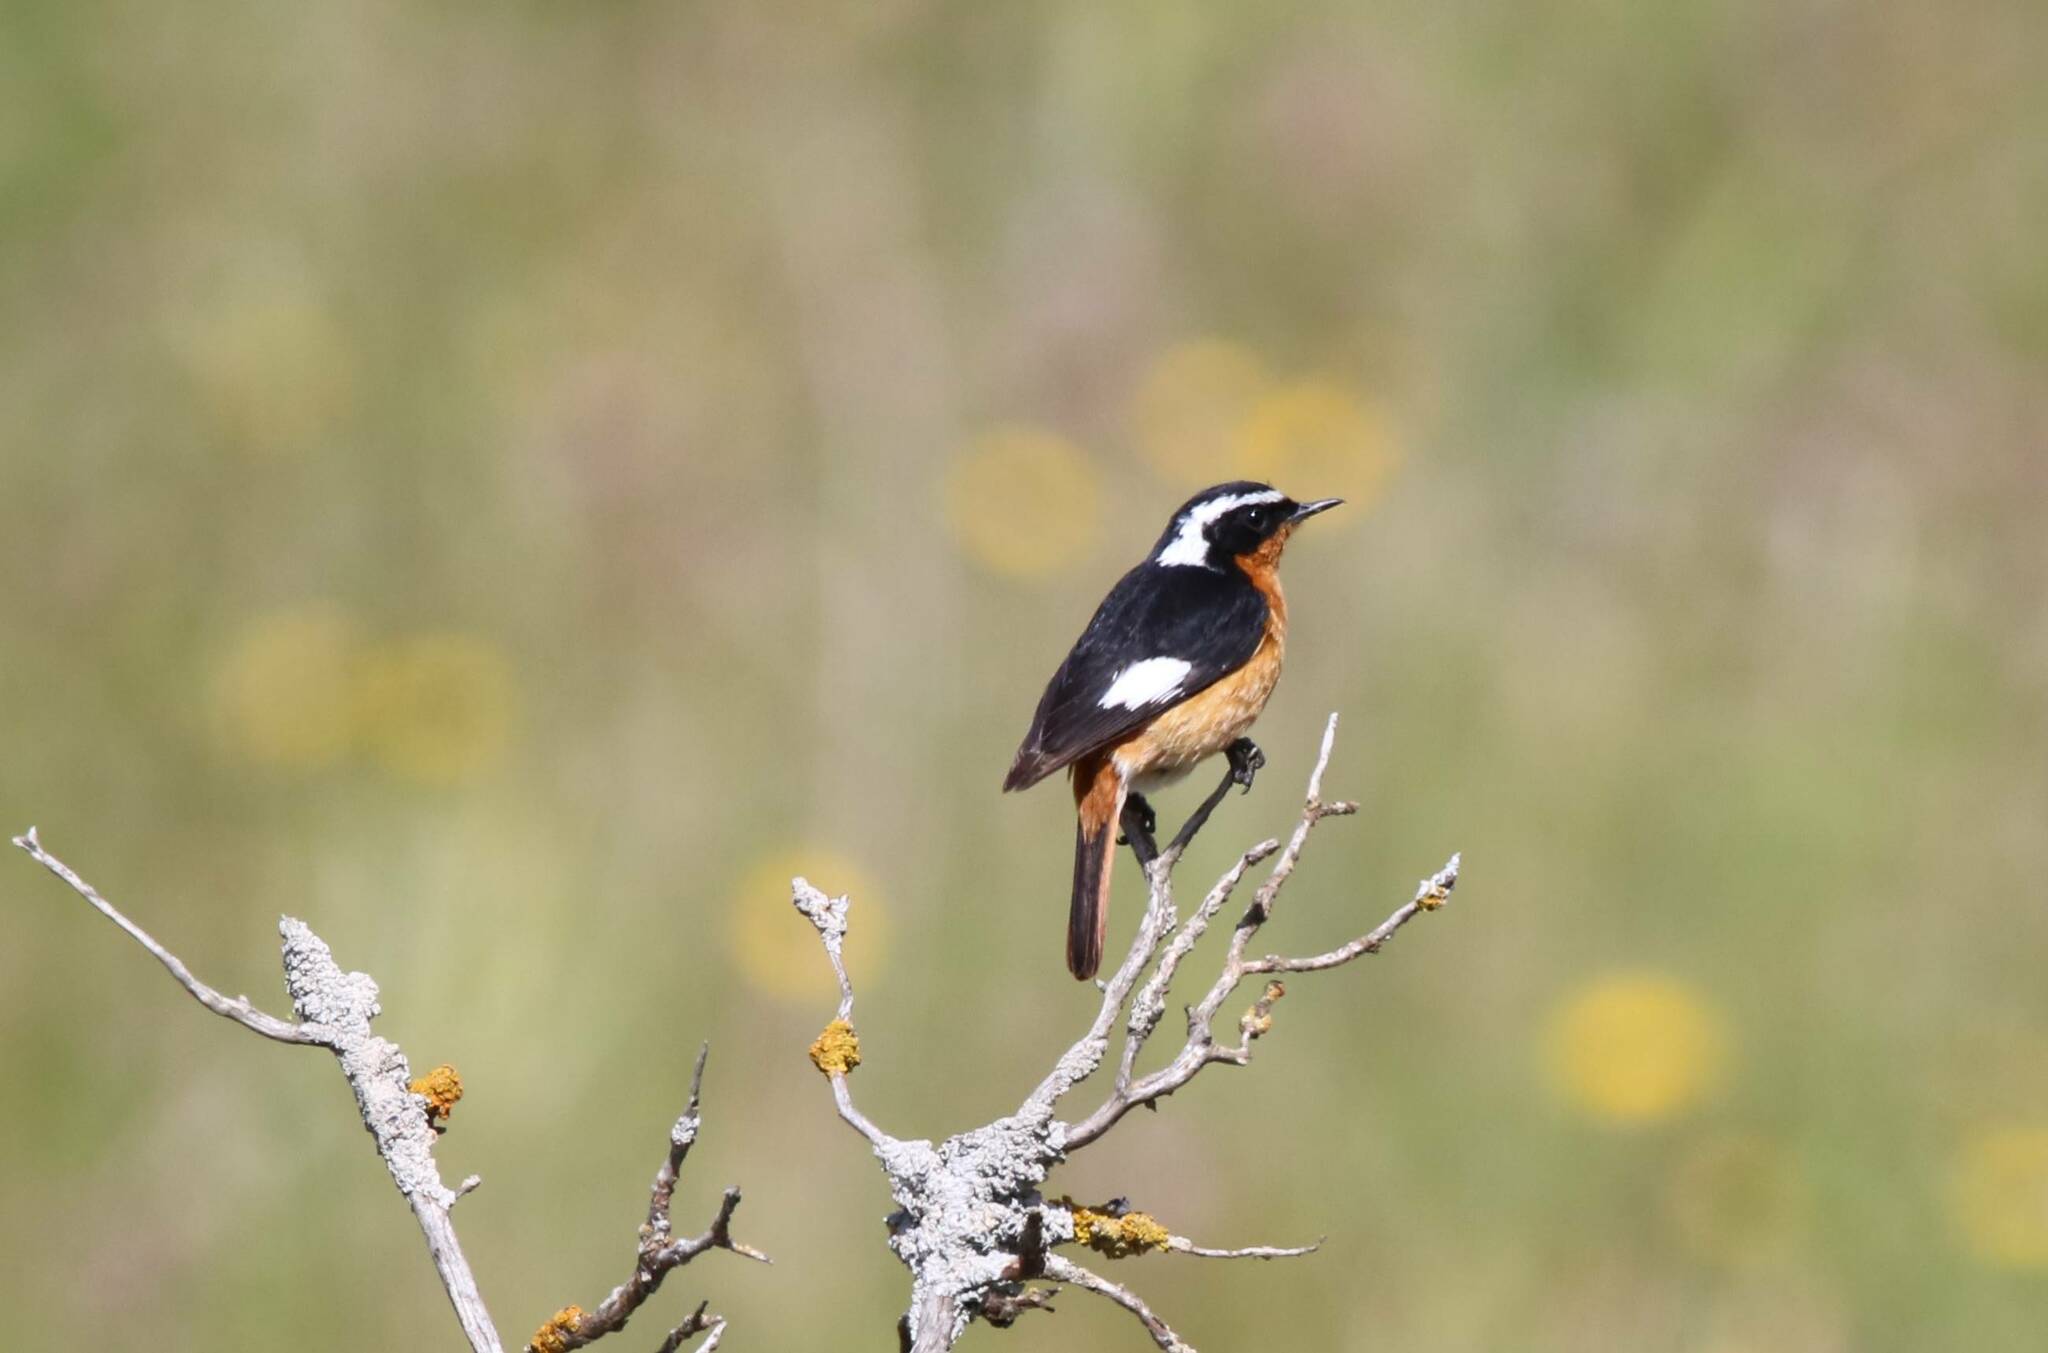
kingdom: Animalia
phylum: Chordata
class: Aves
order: Passeriformes
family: Muscicapidae
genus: Phoenicurus
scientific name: Phoenicurus moussieri
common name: Moussier's redstart
